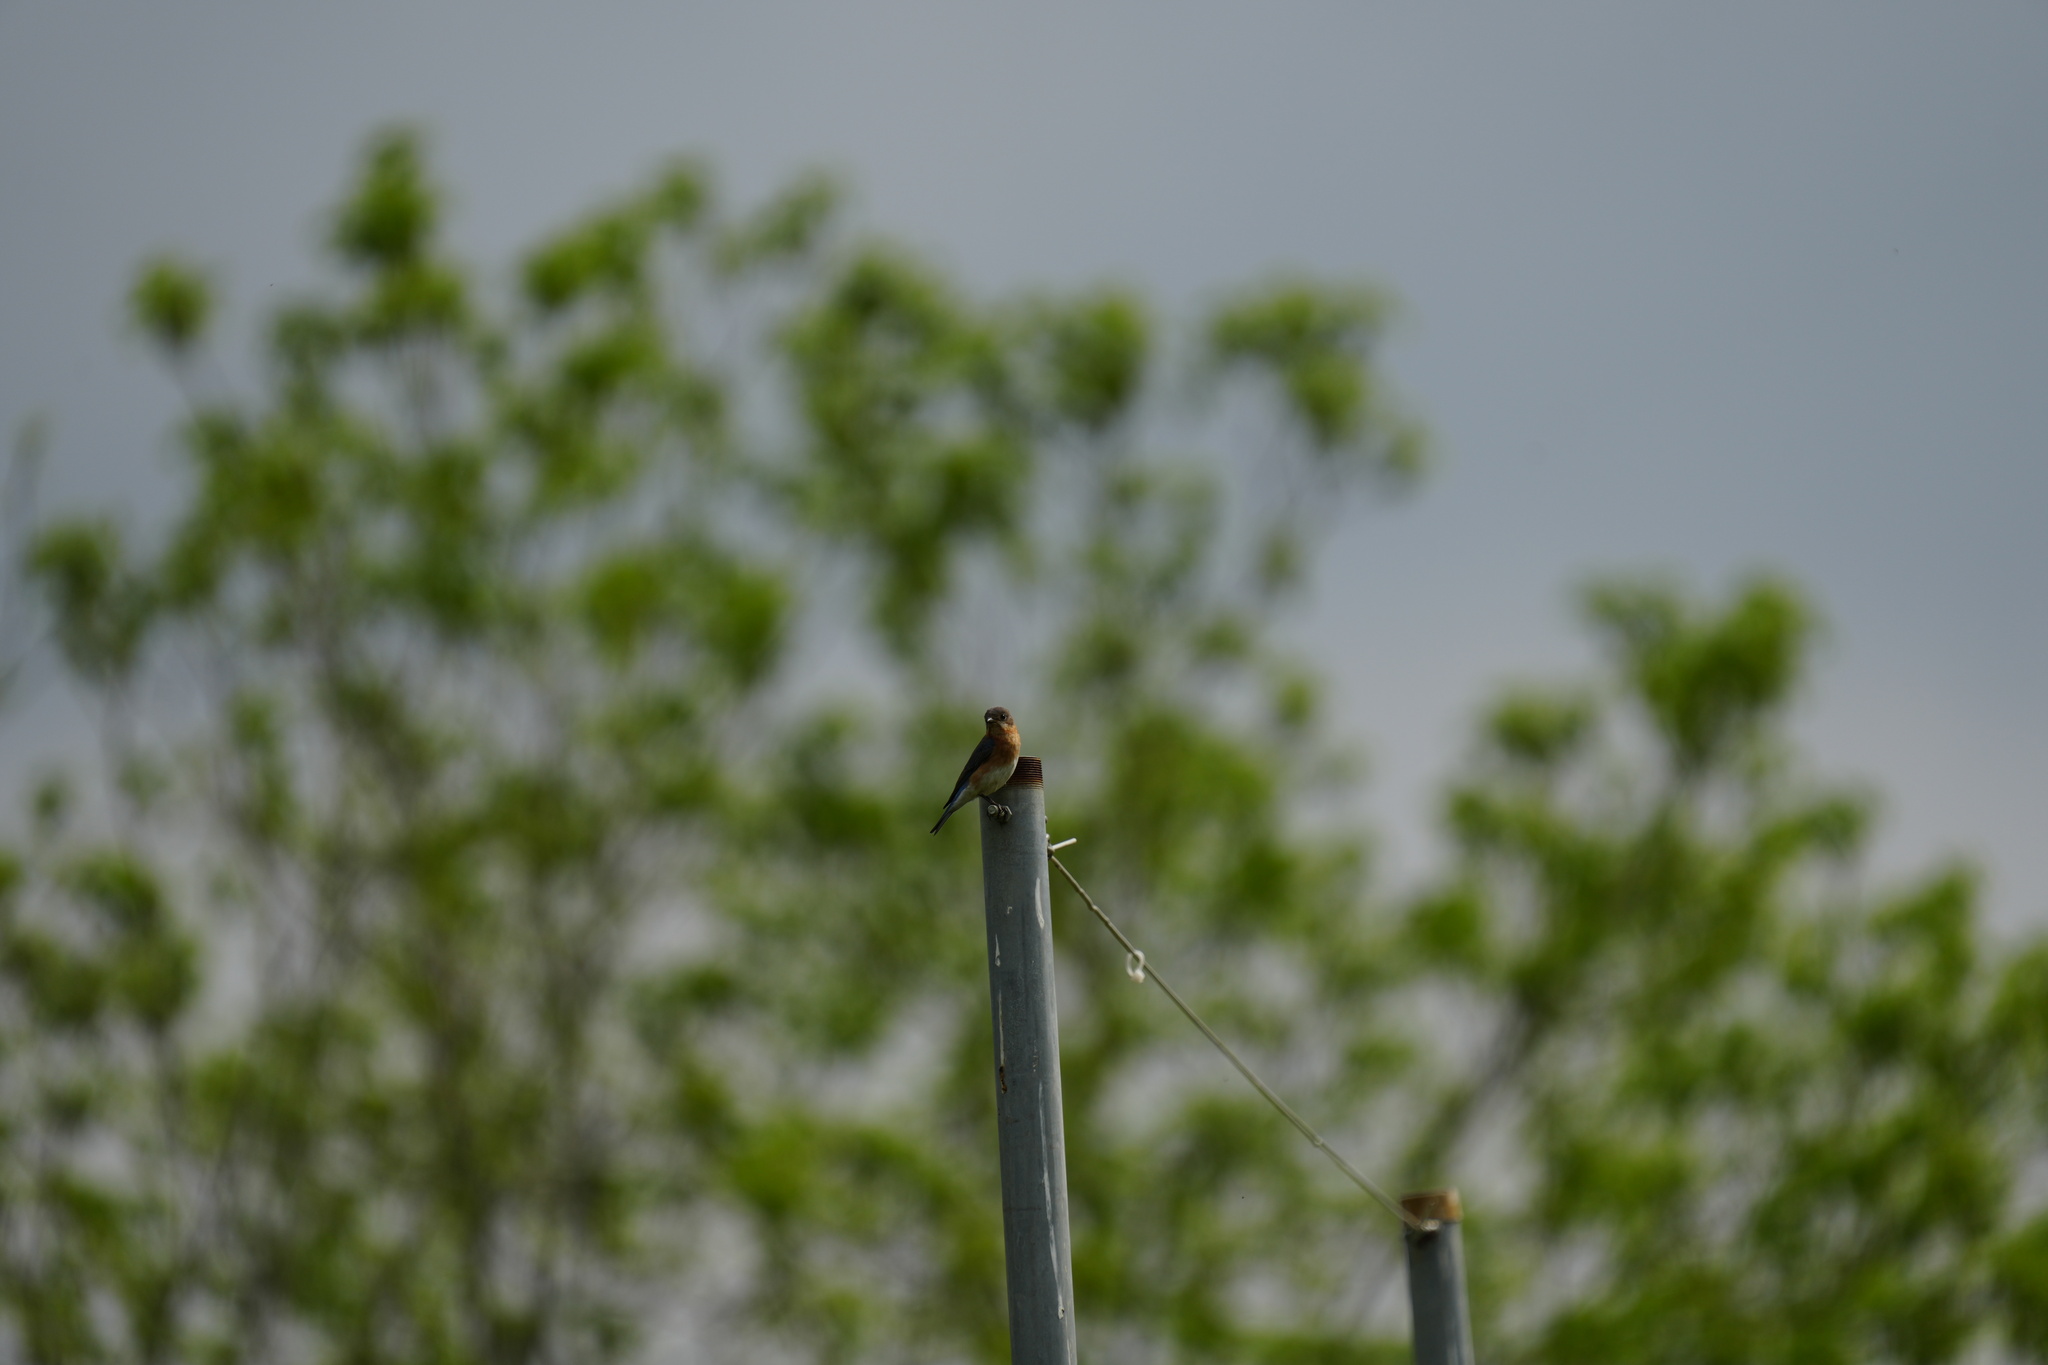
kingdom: Animalia
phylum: Chordata
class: Aves
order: Passeriformes
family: Turdidae
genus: Sialia
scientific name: Sialia sialis
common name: Eastern bluebird
